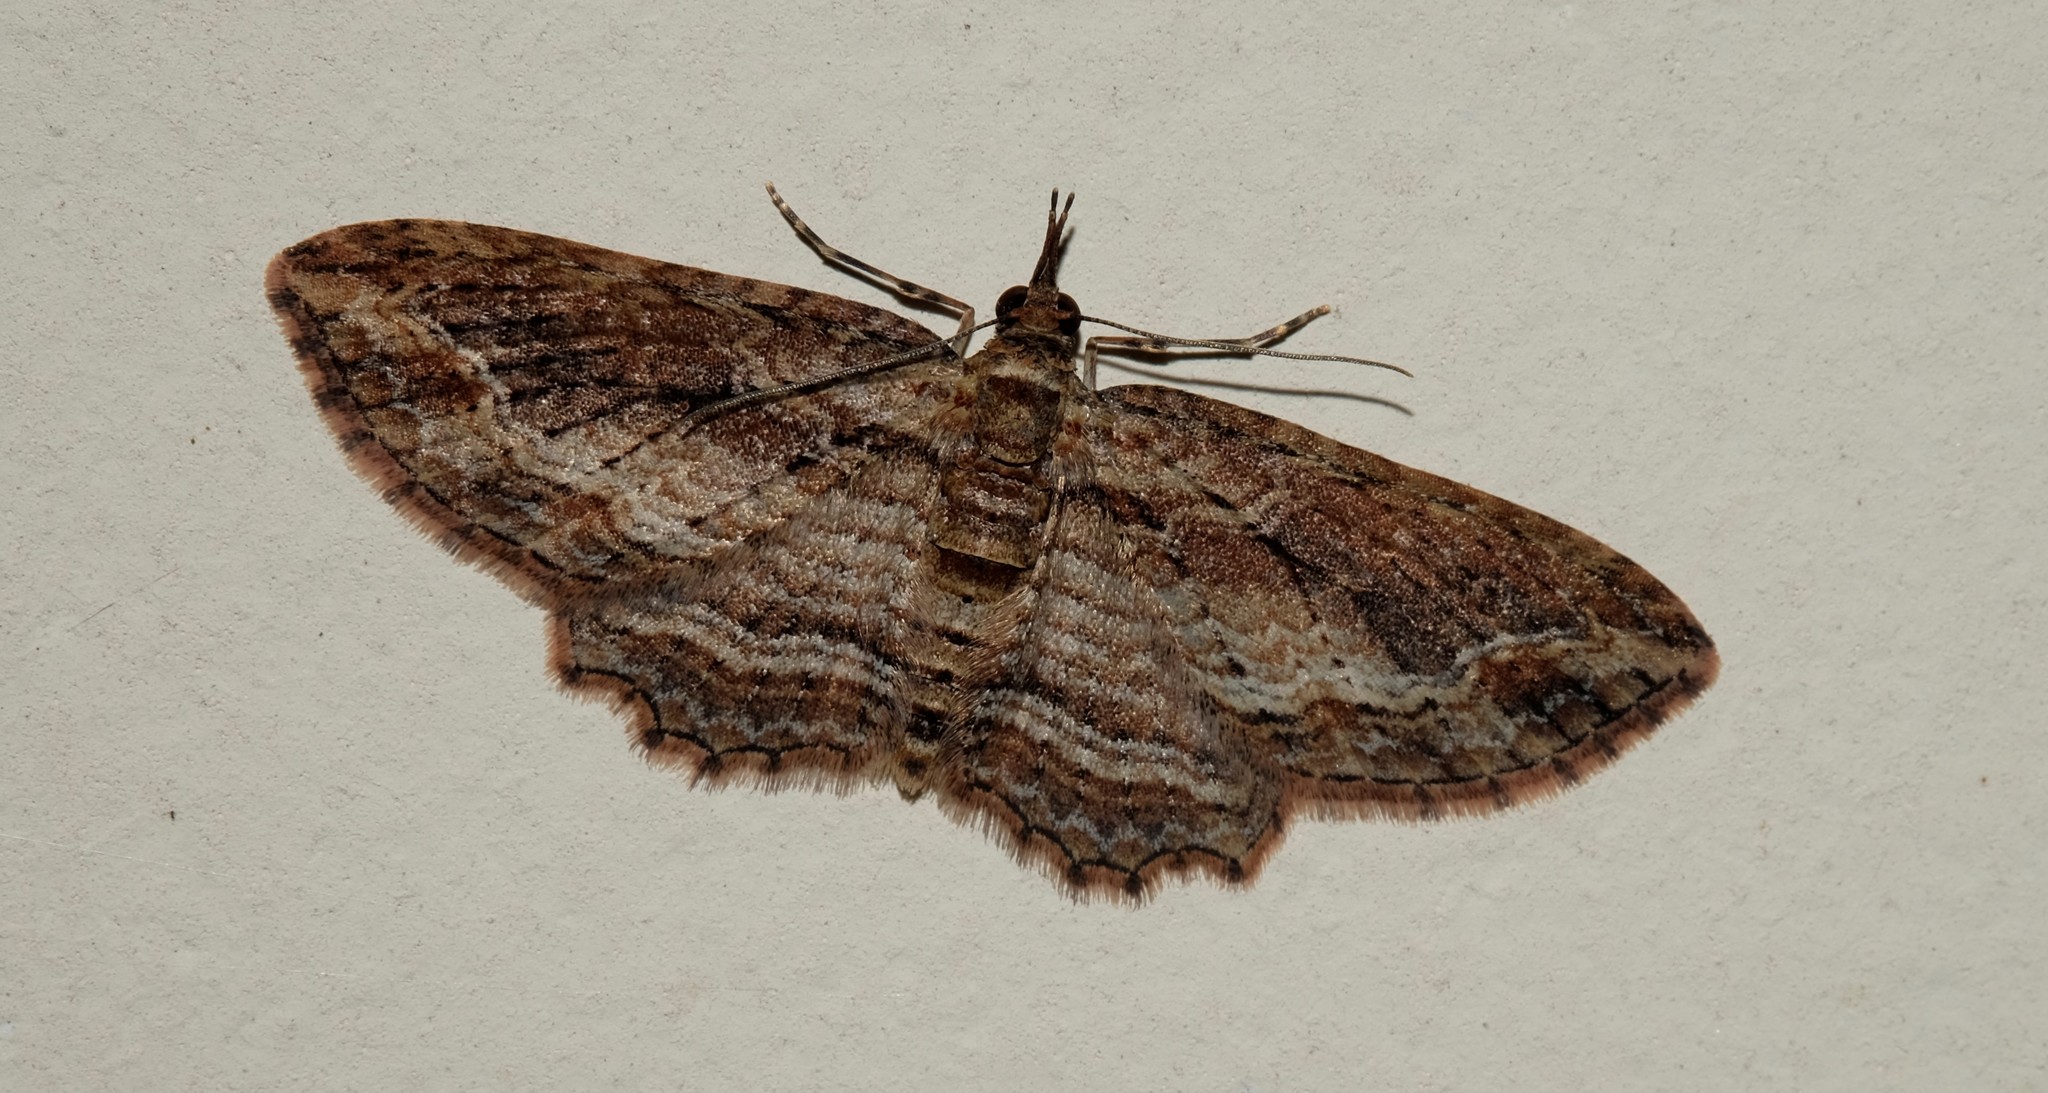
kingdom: Animalia
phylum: Arthropoda
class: Insecta
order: Lepidoptera
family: Geometridae
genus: Chloroclystis
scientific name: Chloroclystis filata
